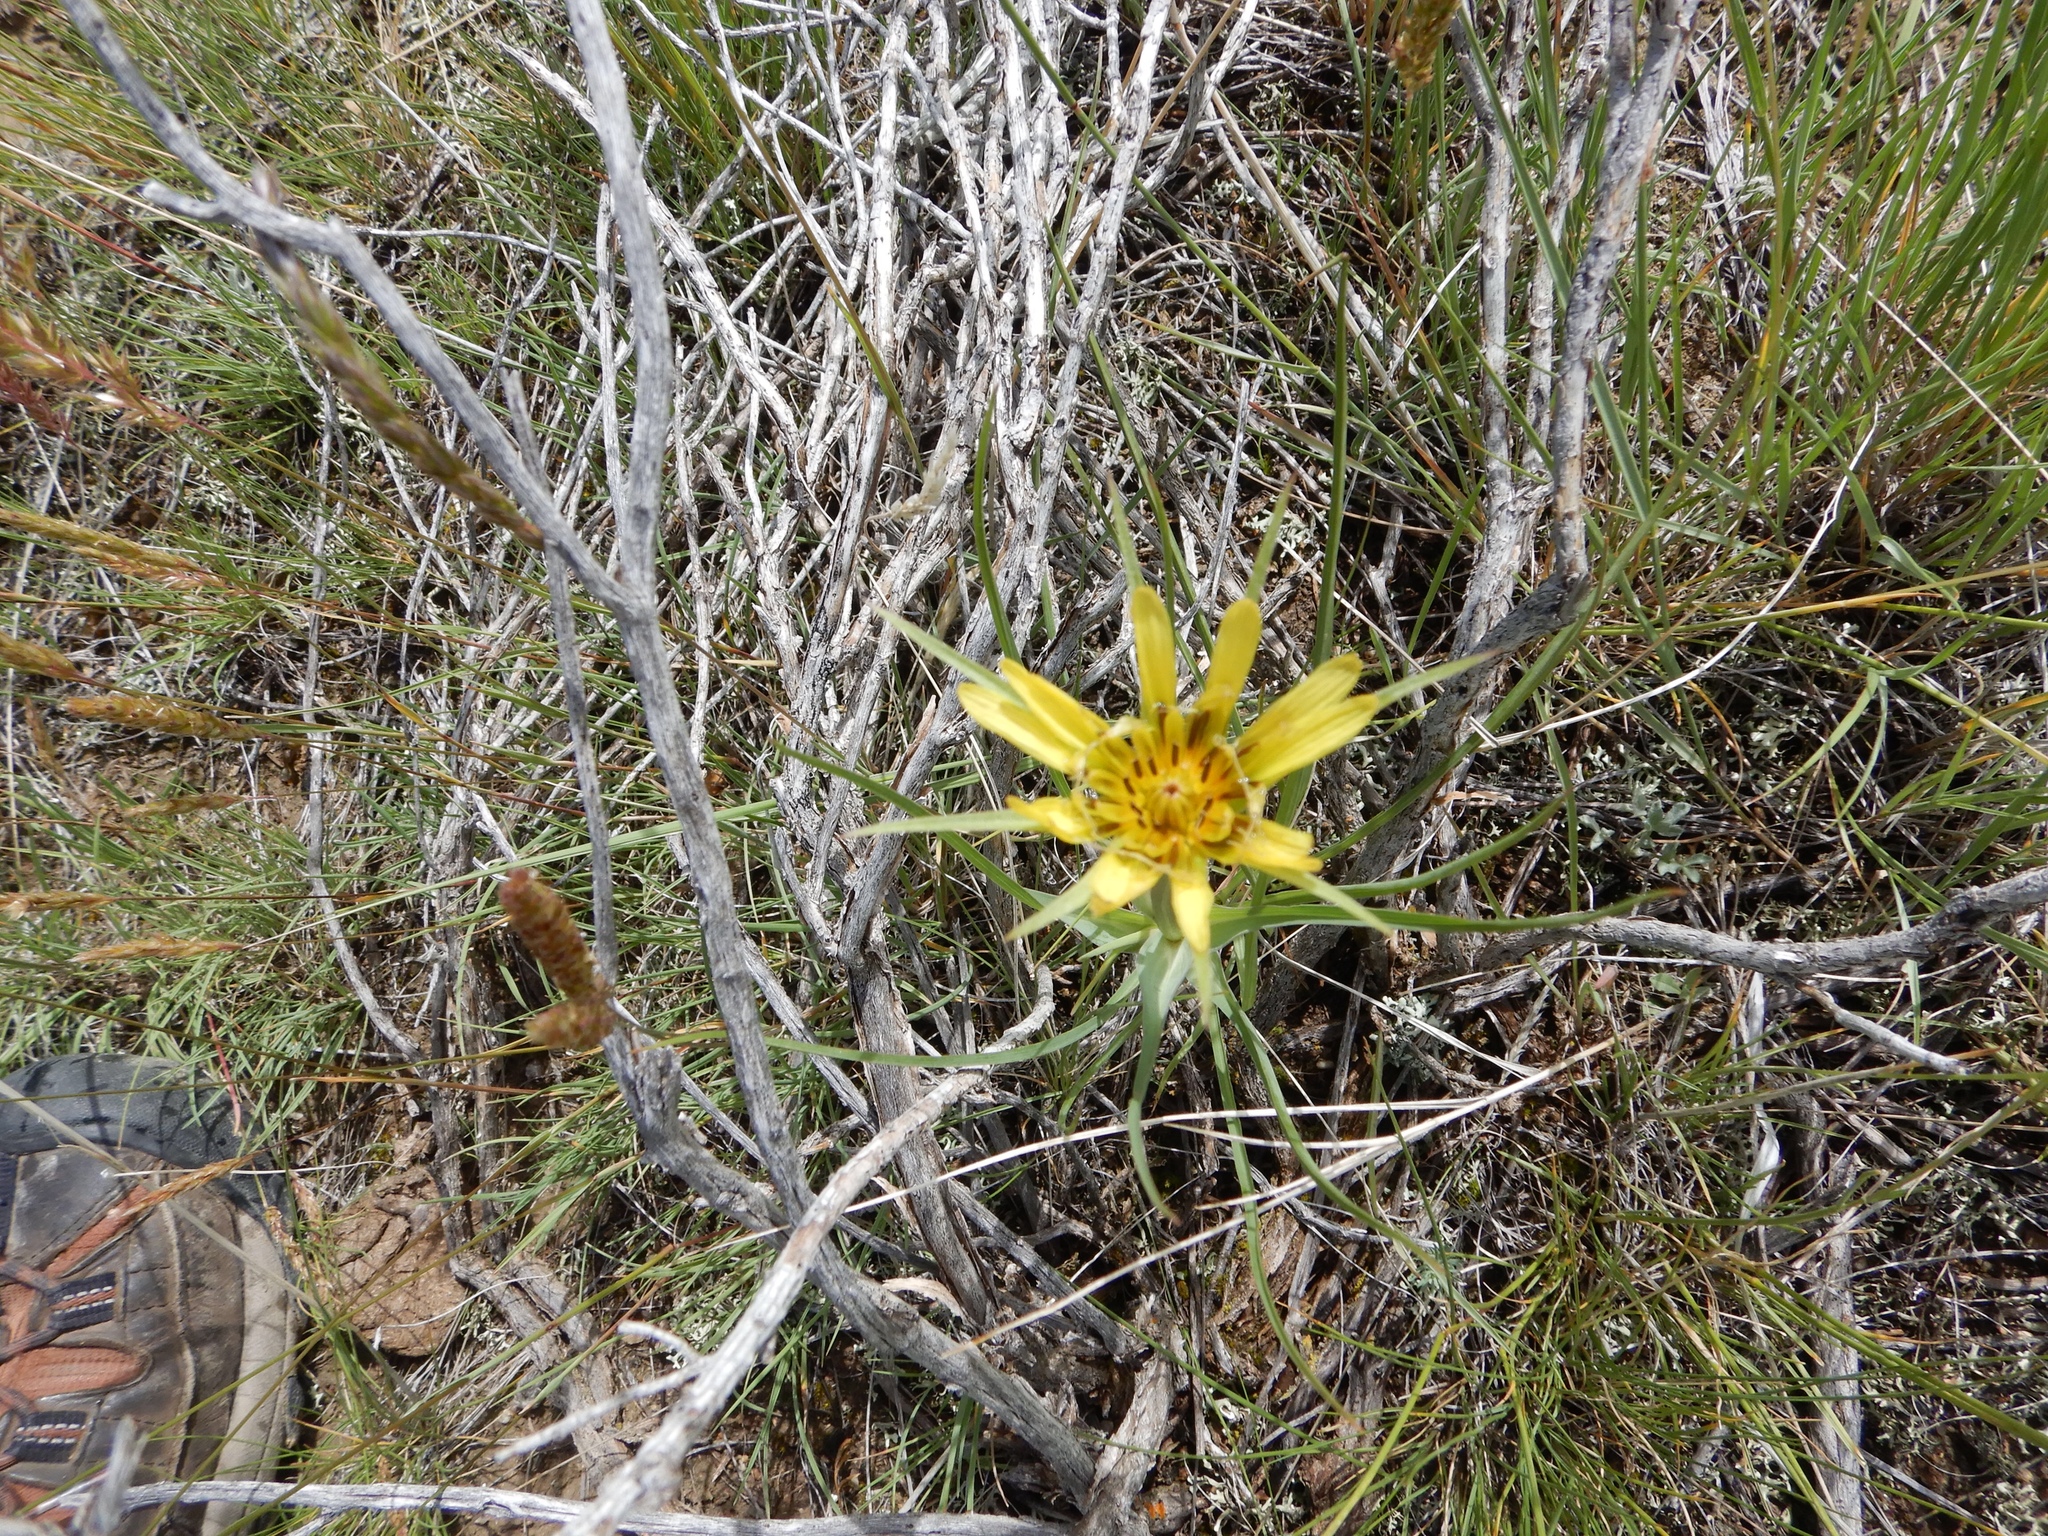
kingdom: Plantae
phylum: Tracheophyta
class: Magnoliopsida
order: Asterales
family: Asteraceae
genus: Tragopogon
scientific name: Tragopogon dubius
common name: Yellow salsify
